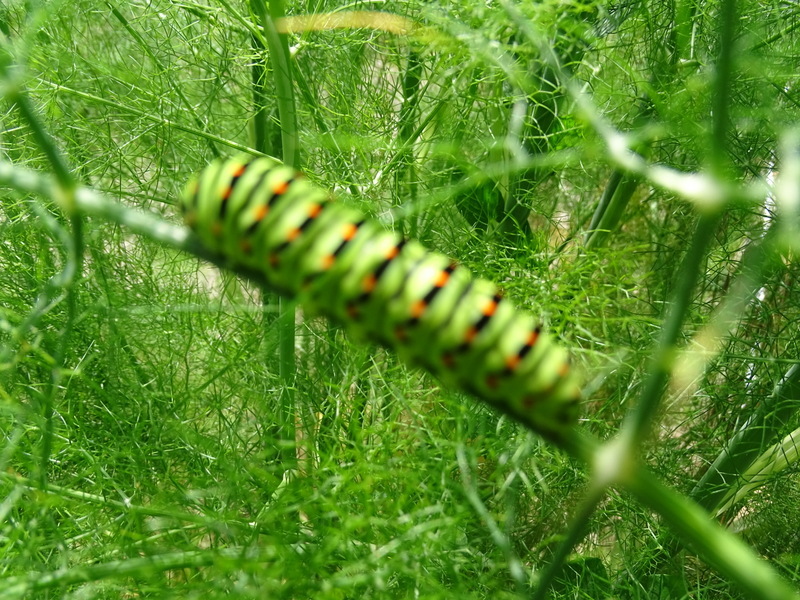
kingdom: Animalia
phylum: Arthropoda
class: Insecta
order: Lepidoptera
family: Papilionidae
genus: Papilio
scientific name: Papilio machaon
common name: Swallowtail
